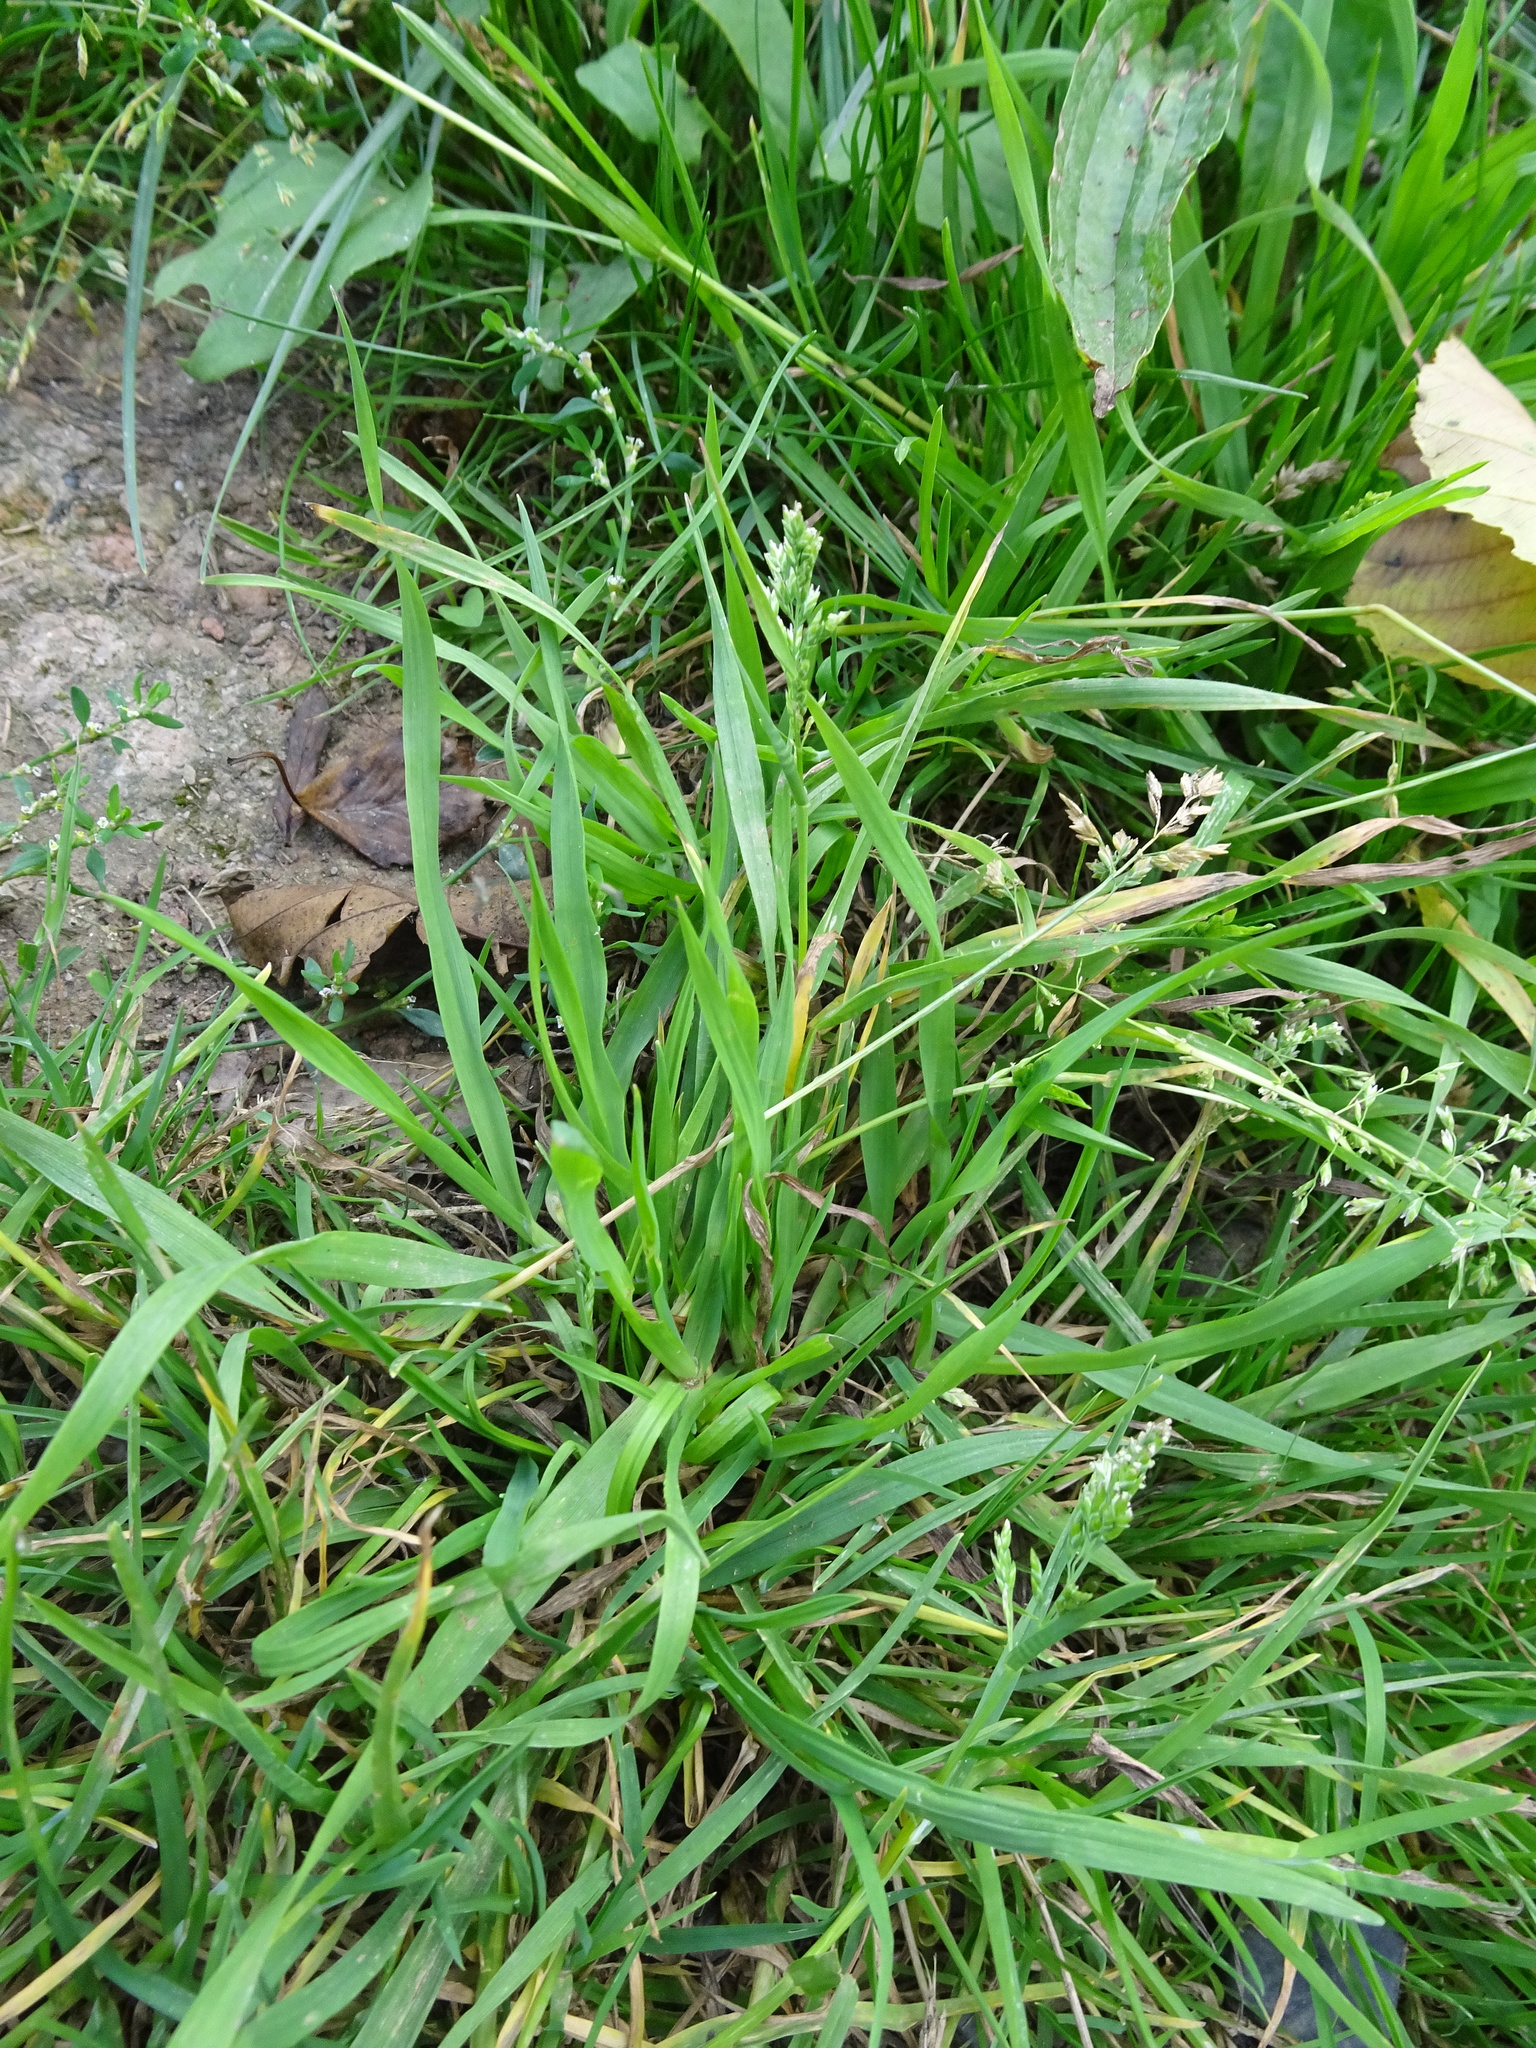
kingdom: Plantae
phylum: Tracheophyta
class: Liliopsida
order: Poales
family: Poaceae
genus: Poa
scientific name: Poa annua
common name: Annual bluegrass
